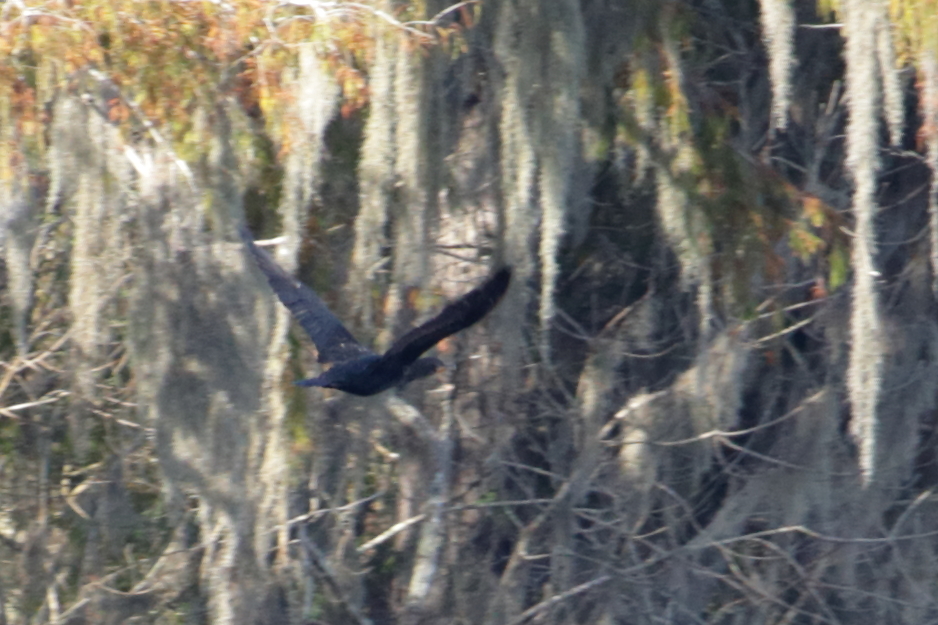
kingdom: Animalia
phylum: Chordata
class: Aves
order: Suliformes
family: Phalacrocoracidae
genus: Phalacrocorax
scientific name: Phalacrocorax auritus
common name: Double-crested cormorant
